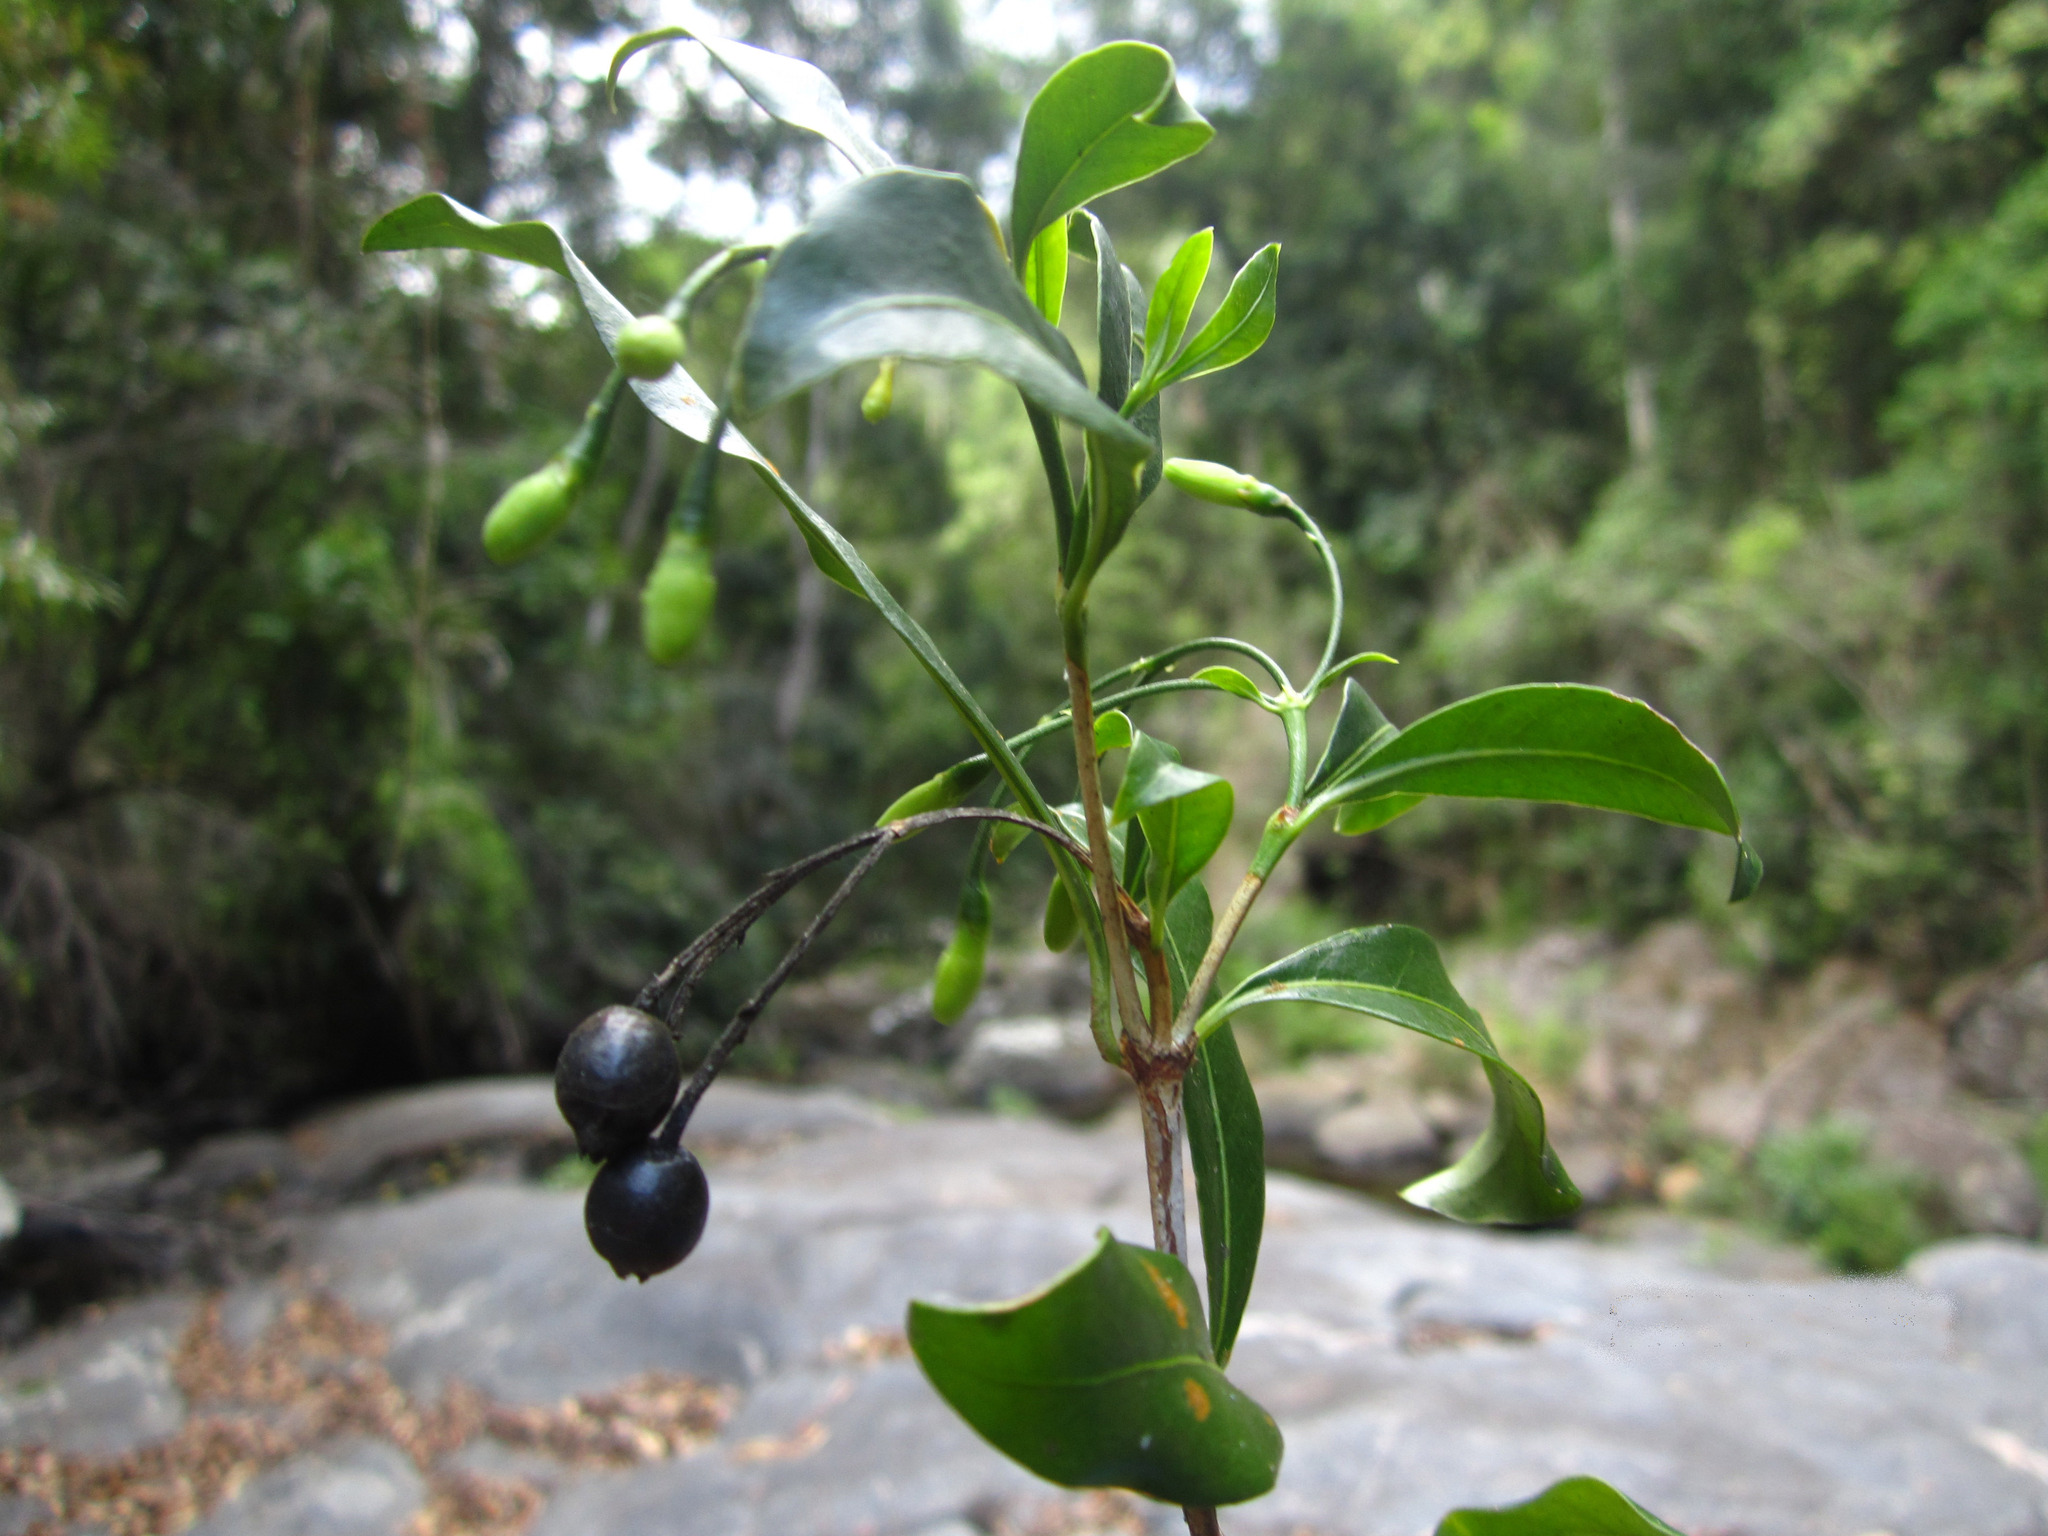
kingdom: Plantae
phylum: Tracheophyta
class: Magnoliopsida
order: Gentianales
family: Rubiaceae
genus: Tarenna
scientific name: Tarenna alleizettei
